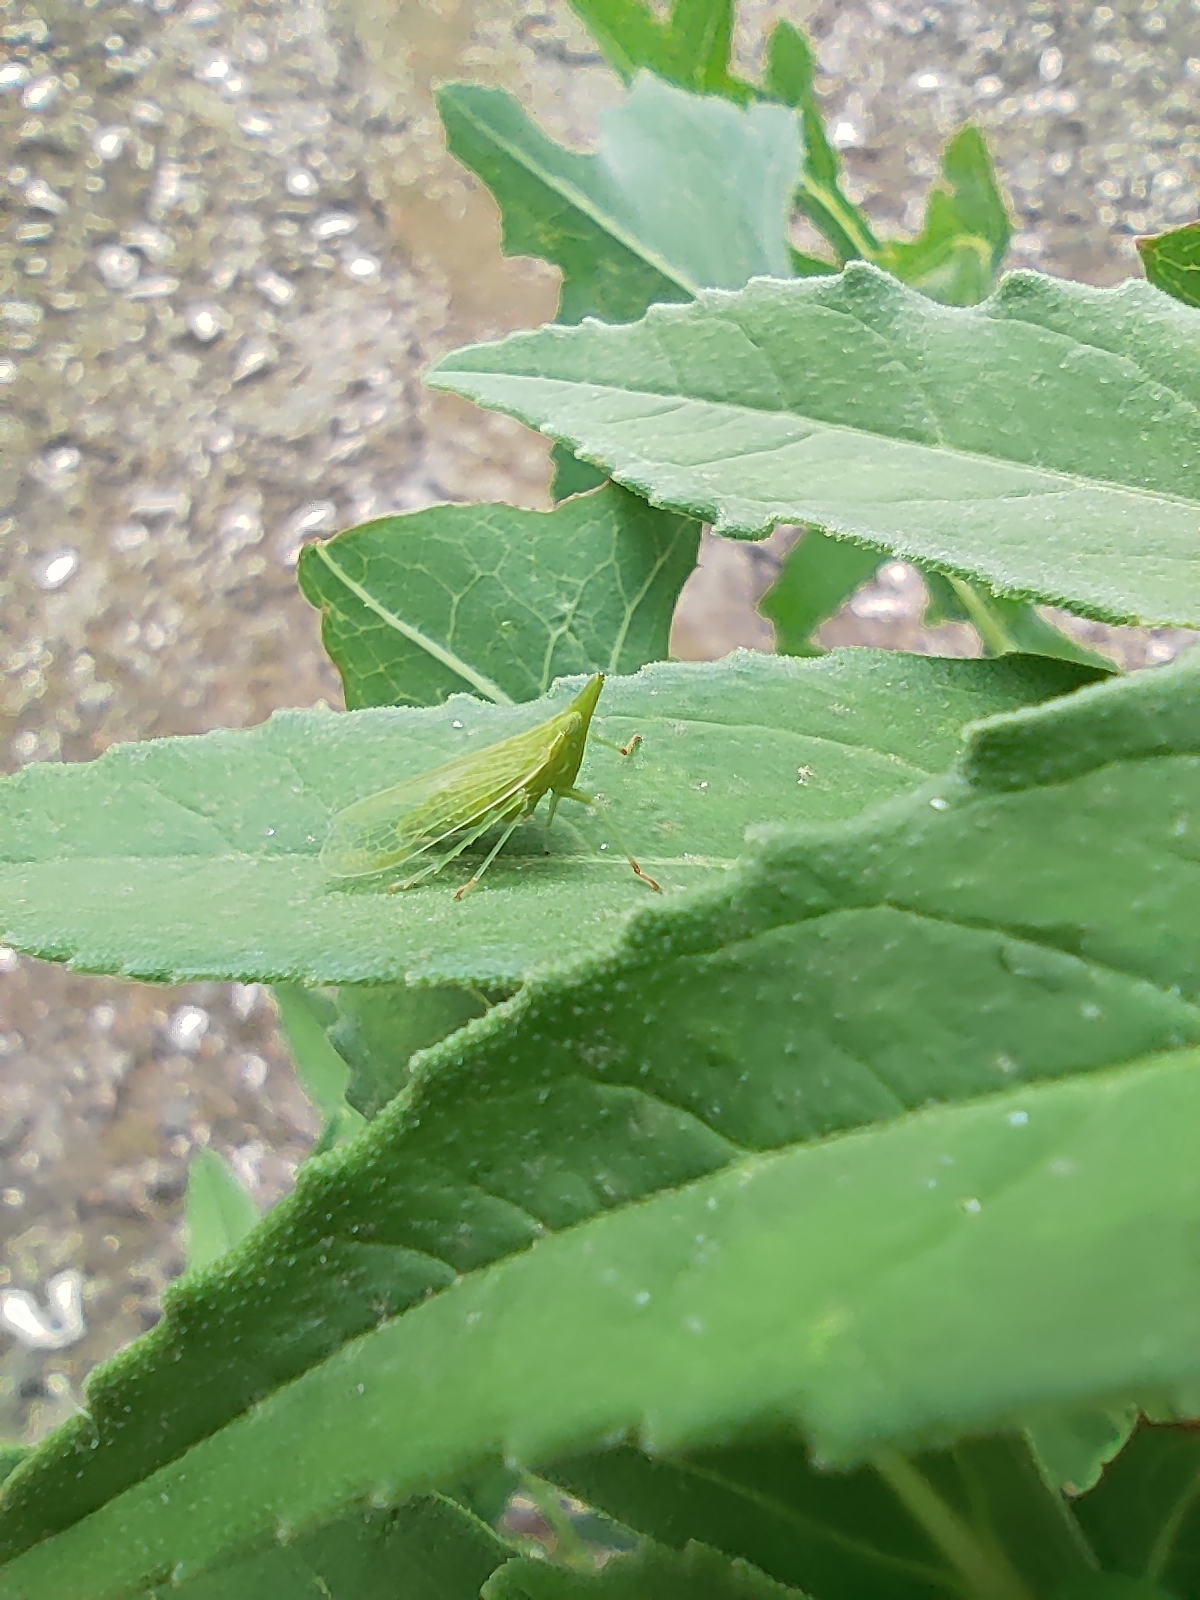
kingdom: Animalia
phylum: Arthropoda
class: Insecta
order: Hemiptera
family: Dictyopharidae
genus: Dictyophara
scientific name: Dictyophara europaea
